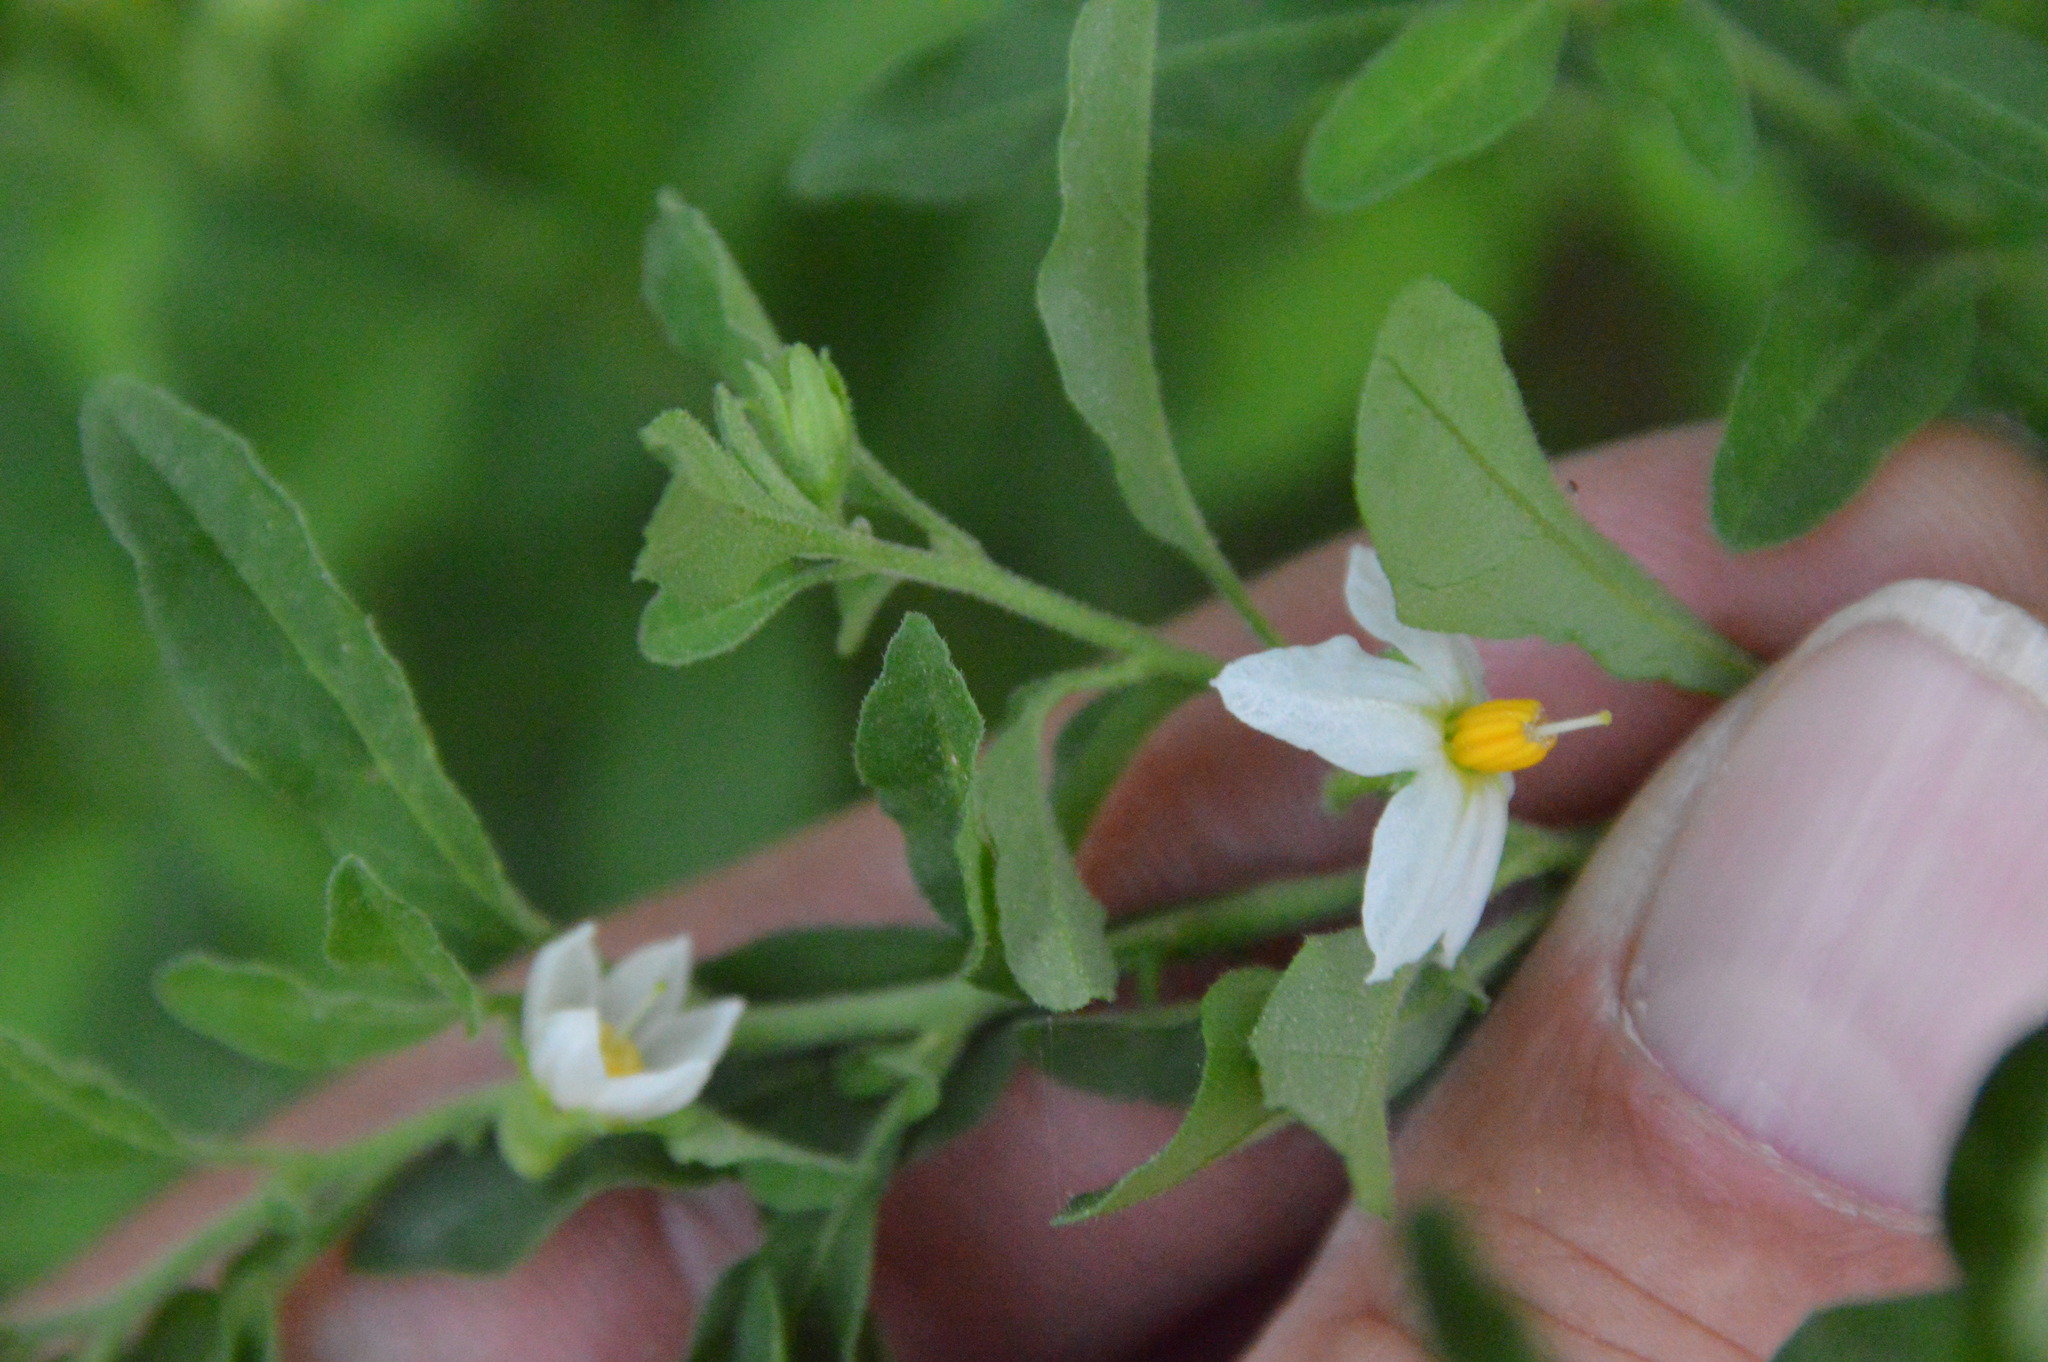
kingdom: Plantae
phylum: Tracheophyta
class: Magnoliopsida
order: Solanales
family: Solanaceae
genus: Solanum
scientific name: Solanum pseudocapsicum
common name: Jerusalem cherry
